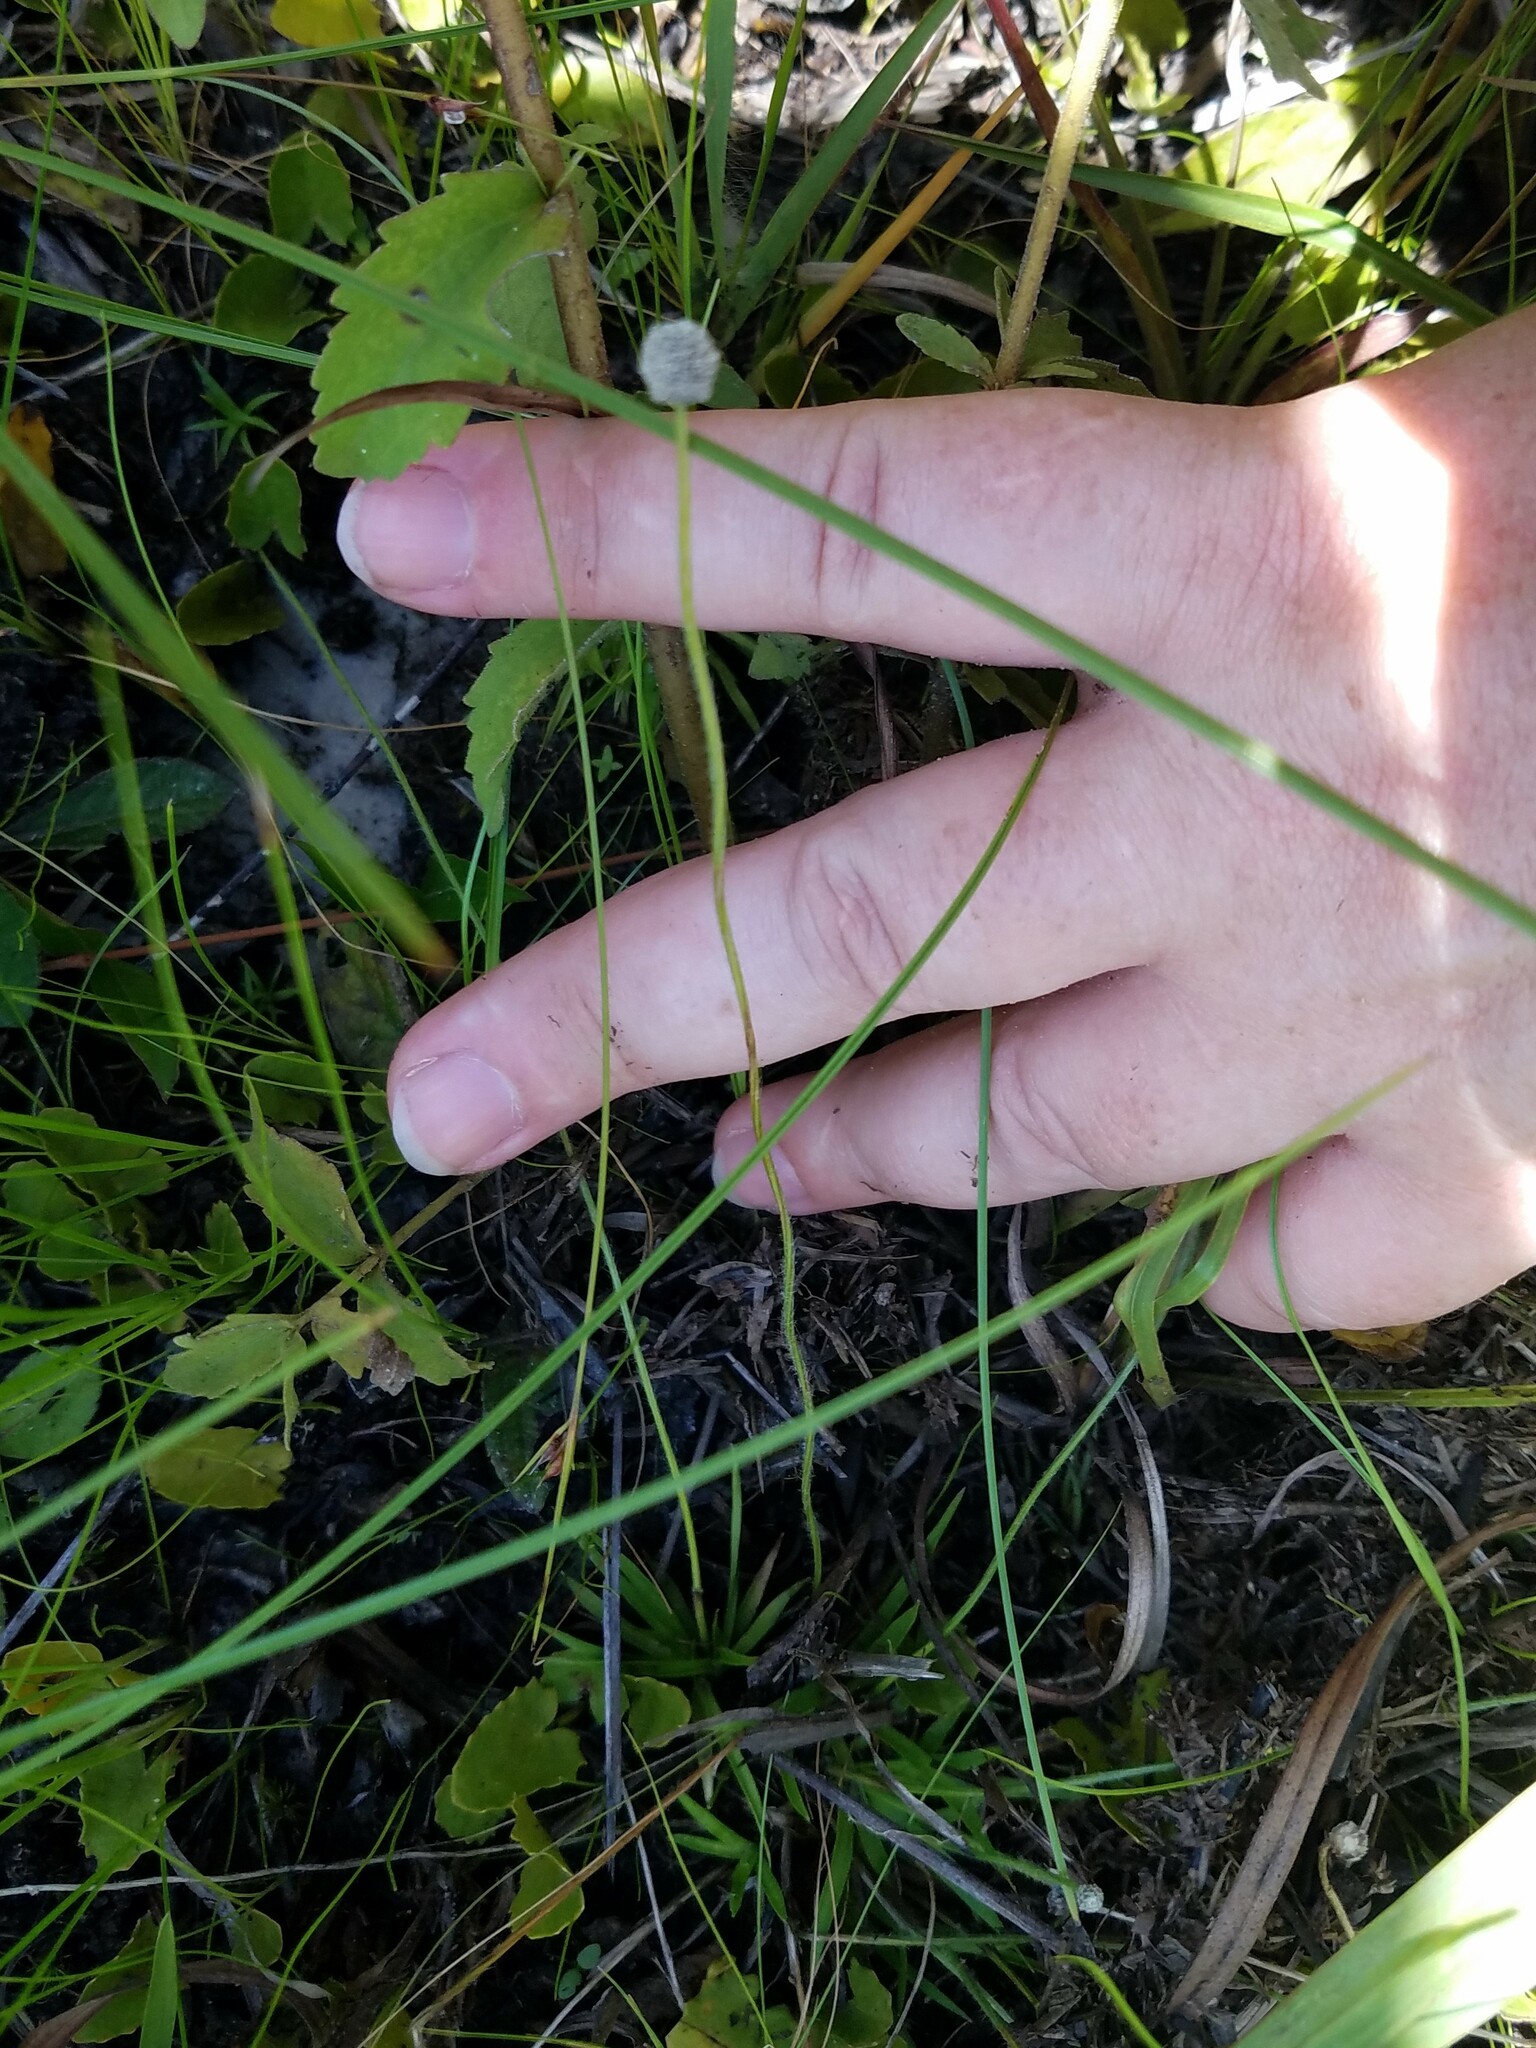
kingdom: Plantae
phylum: Tracheophyta
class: Liliopsida
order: Poales
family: Eriocaulaceae
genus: Paepalanthus
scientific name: Paepalanthus anceps
